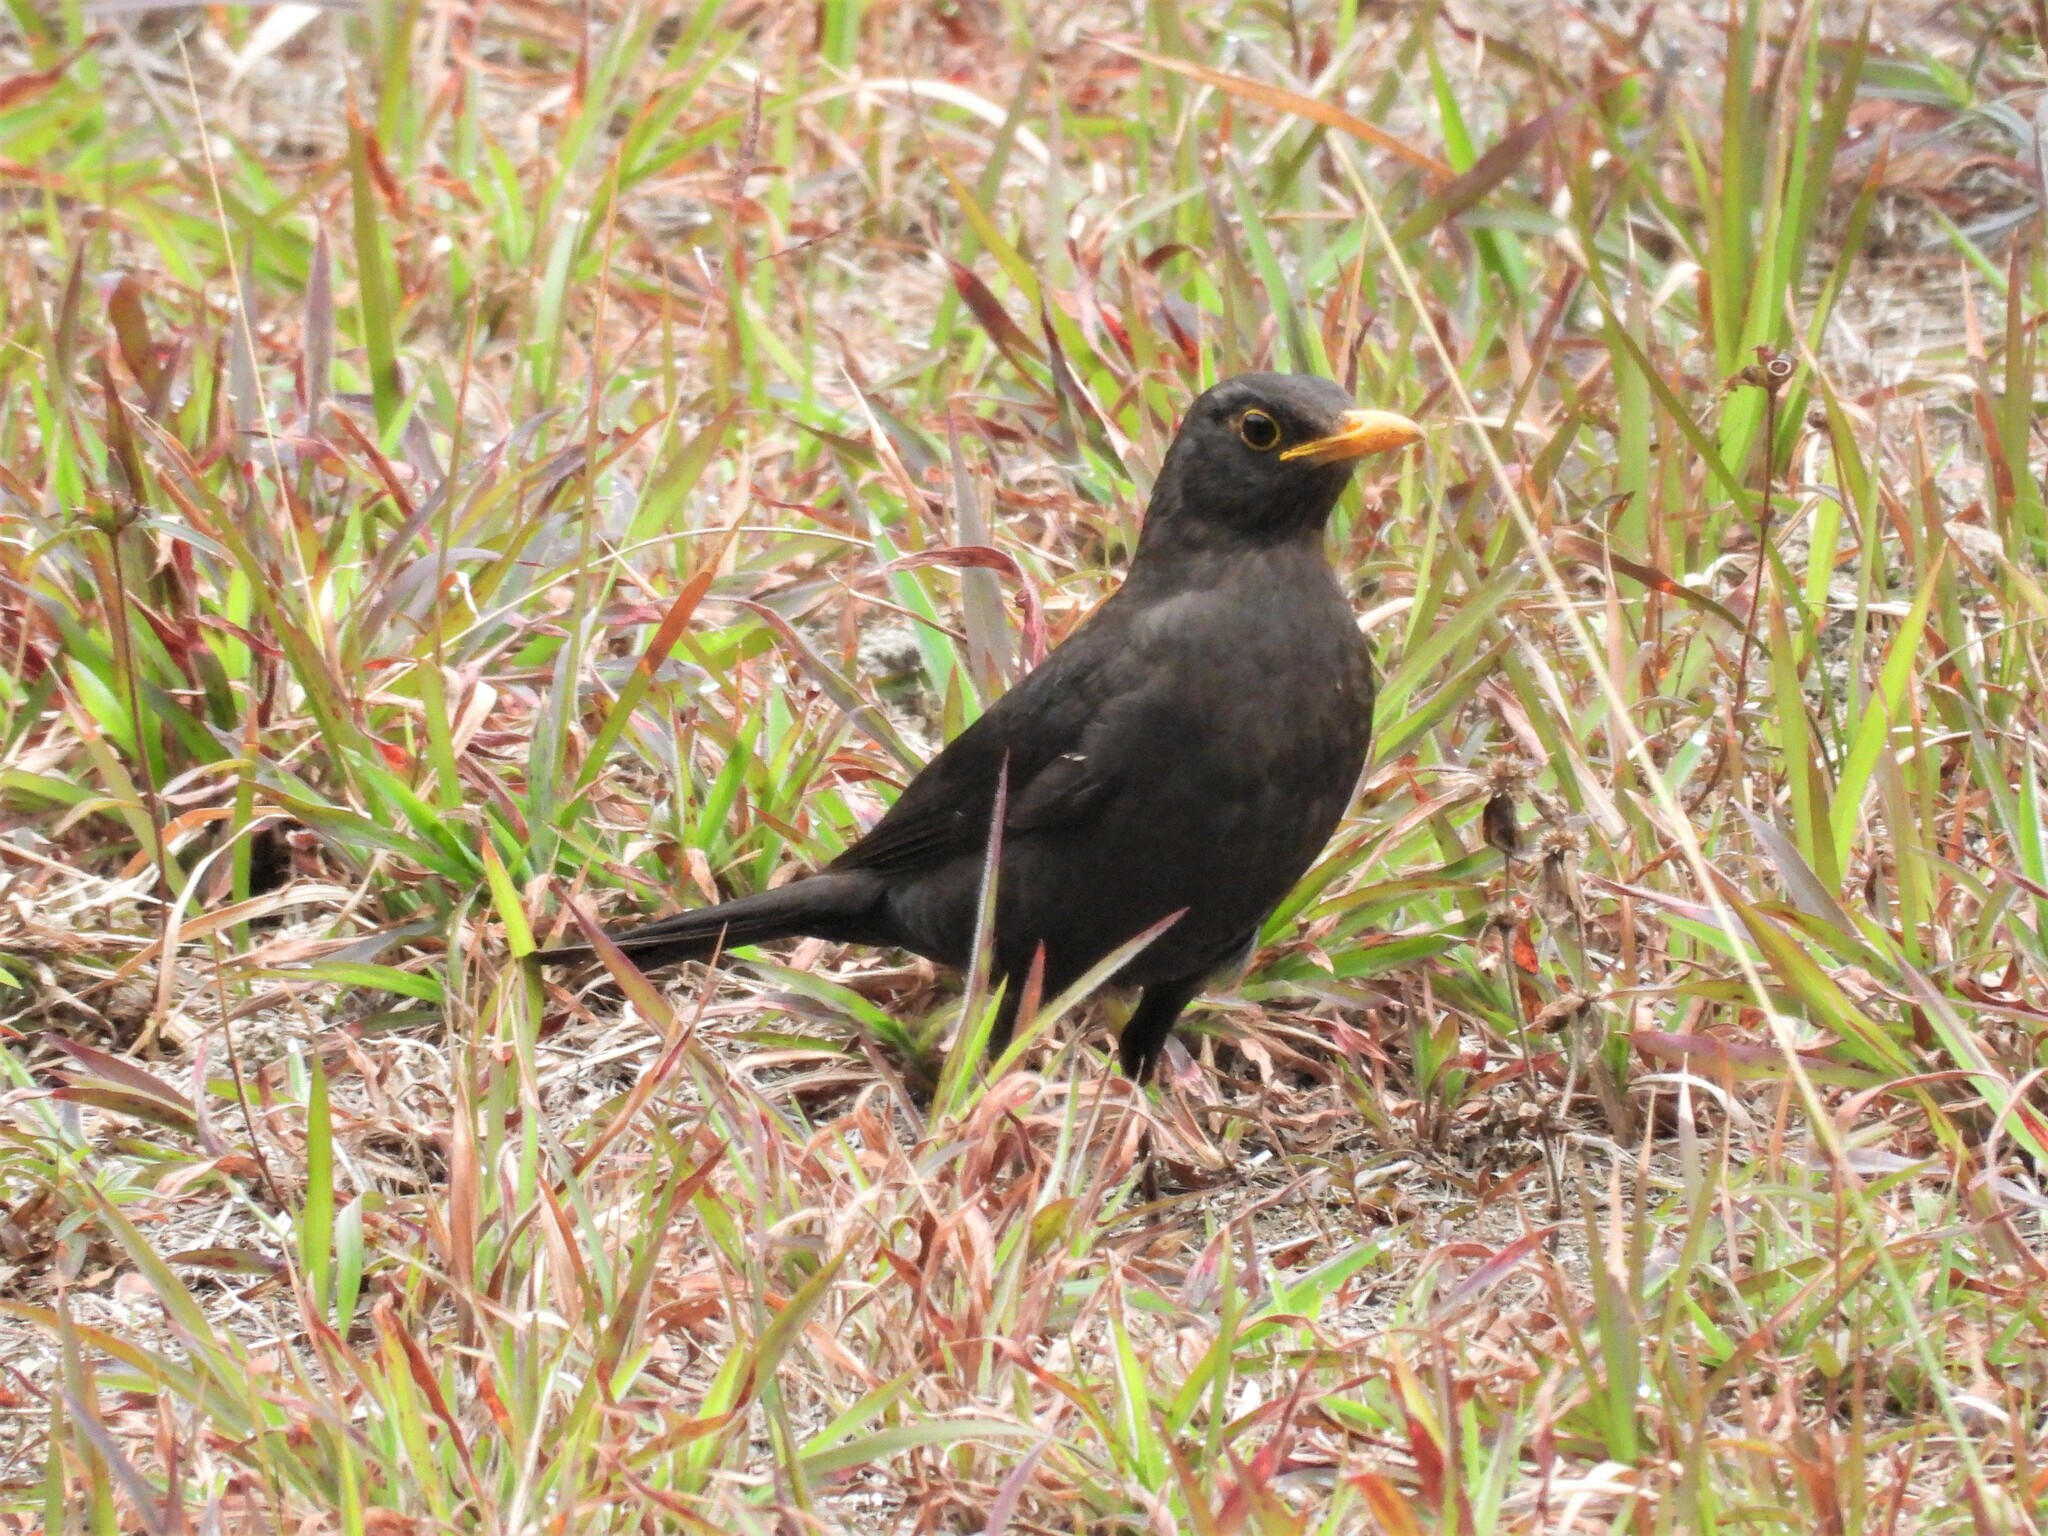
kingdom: Animalia
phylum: Chordata
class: Aves
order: Passeriformes
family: Turdidae
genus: Turdus
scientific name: Turdus mandarinus
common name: Chinese blackbird
